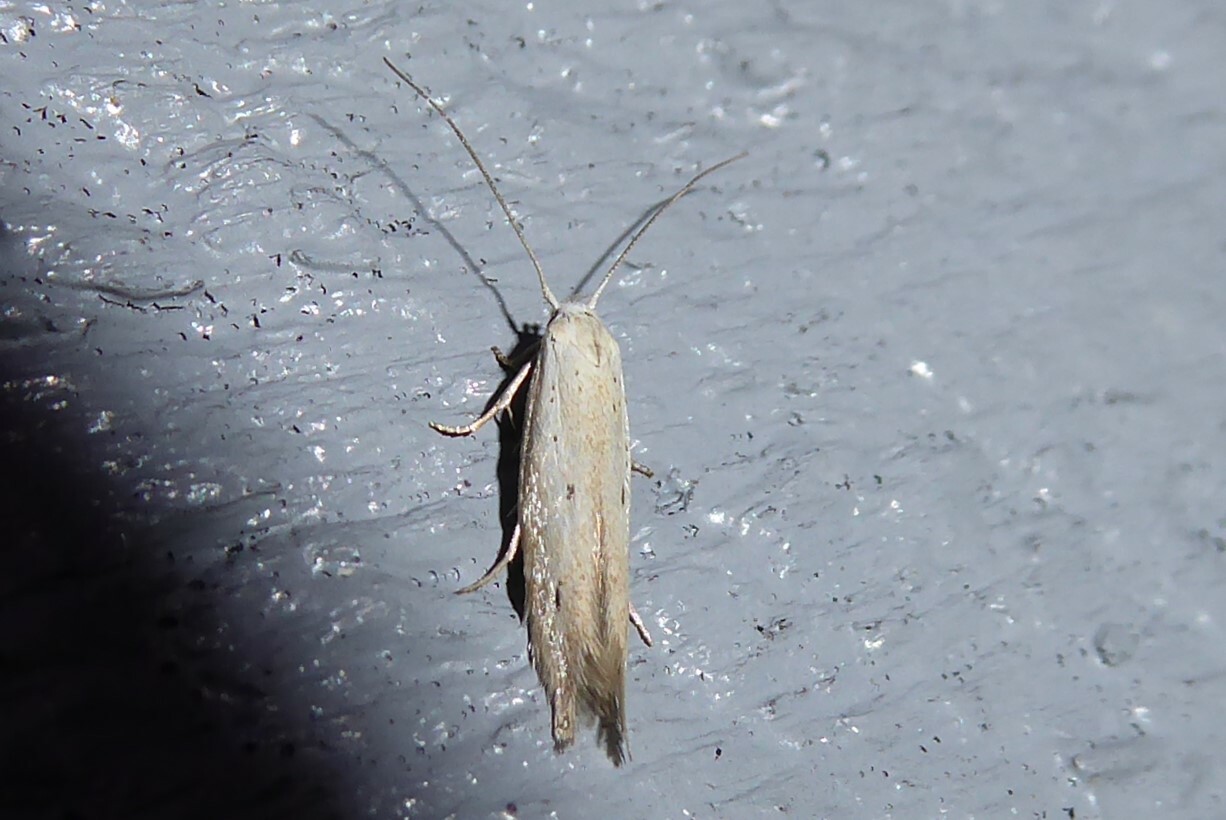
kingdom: Animalia
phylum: Arthropoda
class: Insecta
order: Lepidoptera
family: Elachistidae
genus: Elachista
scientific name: Elachista gerasmia
